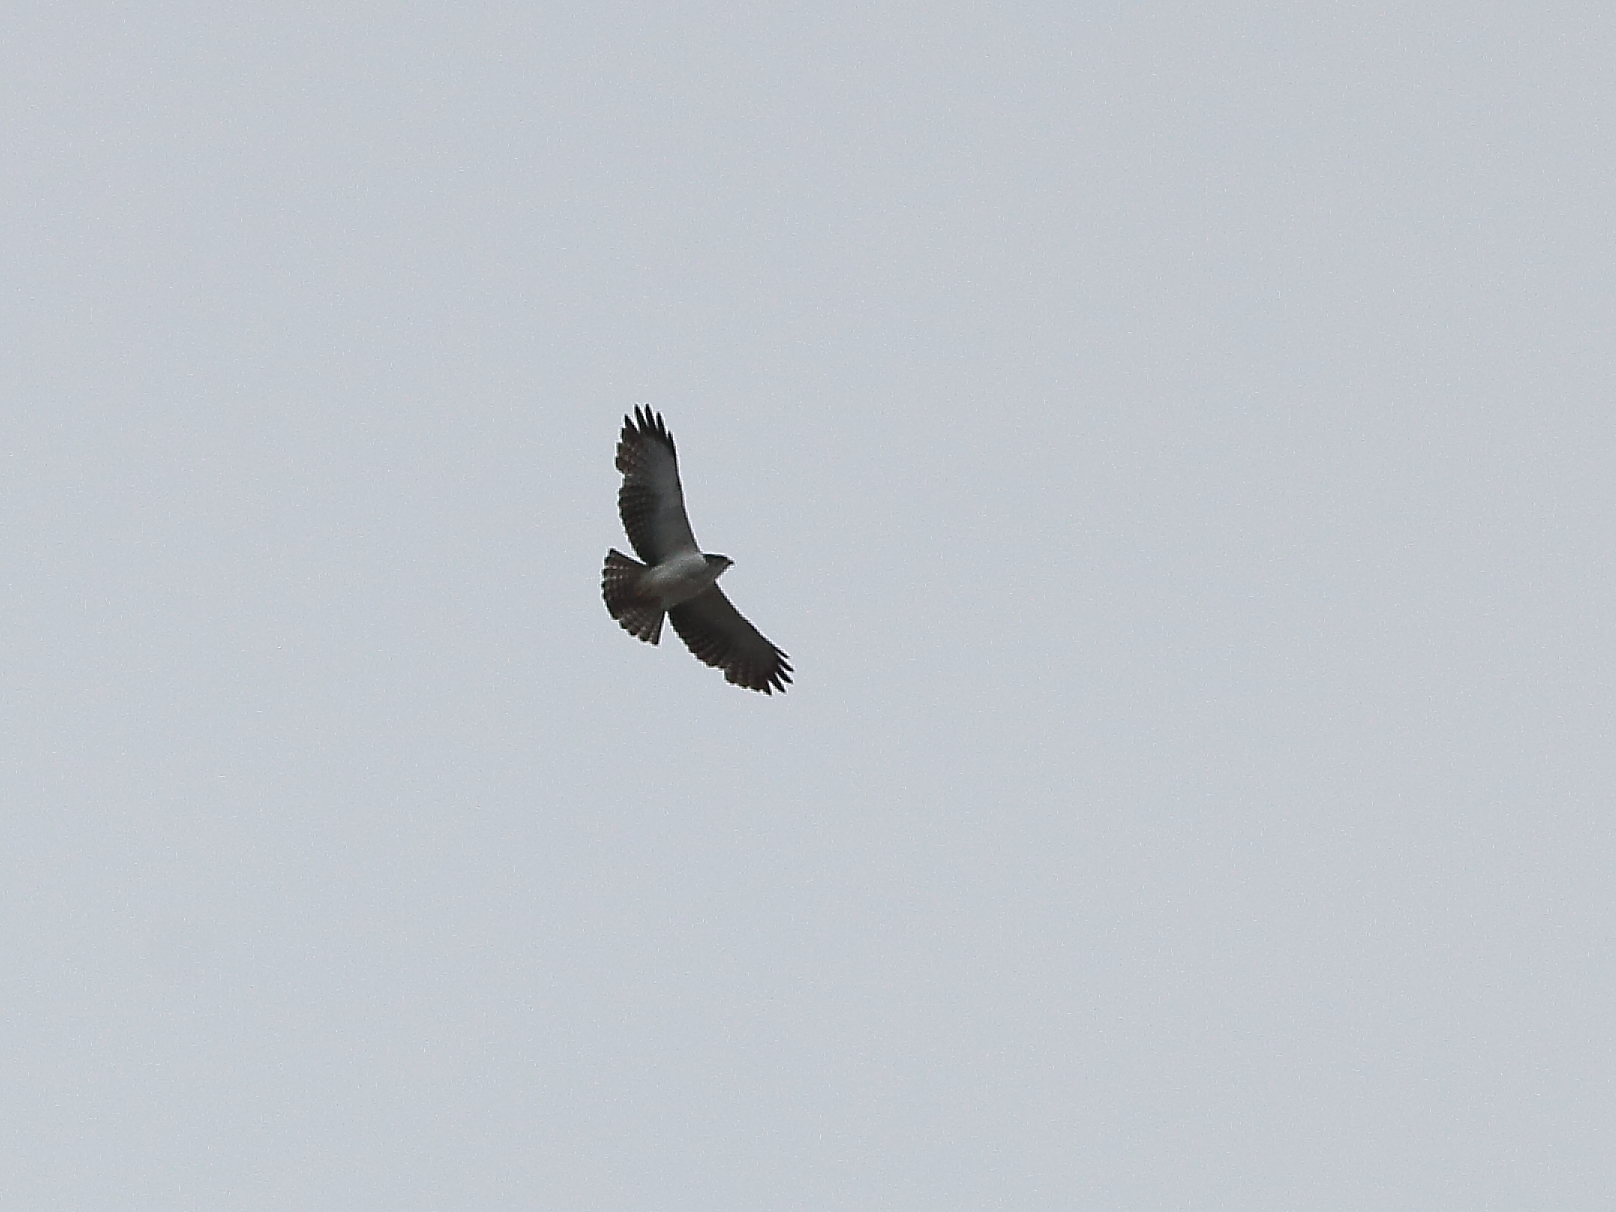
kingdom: Animalia
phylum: Chordata
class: Aves
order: Accipitriformes
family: Accipitridae
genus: Buteo
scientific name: Buteo brachyurus
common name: Short-tailed hawk
